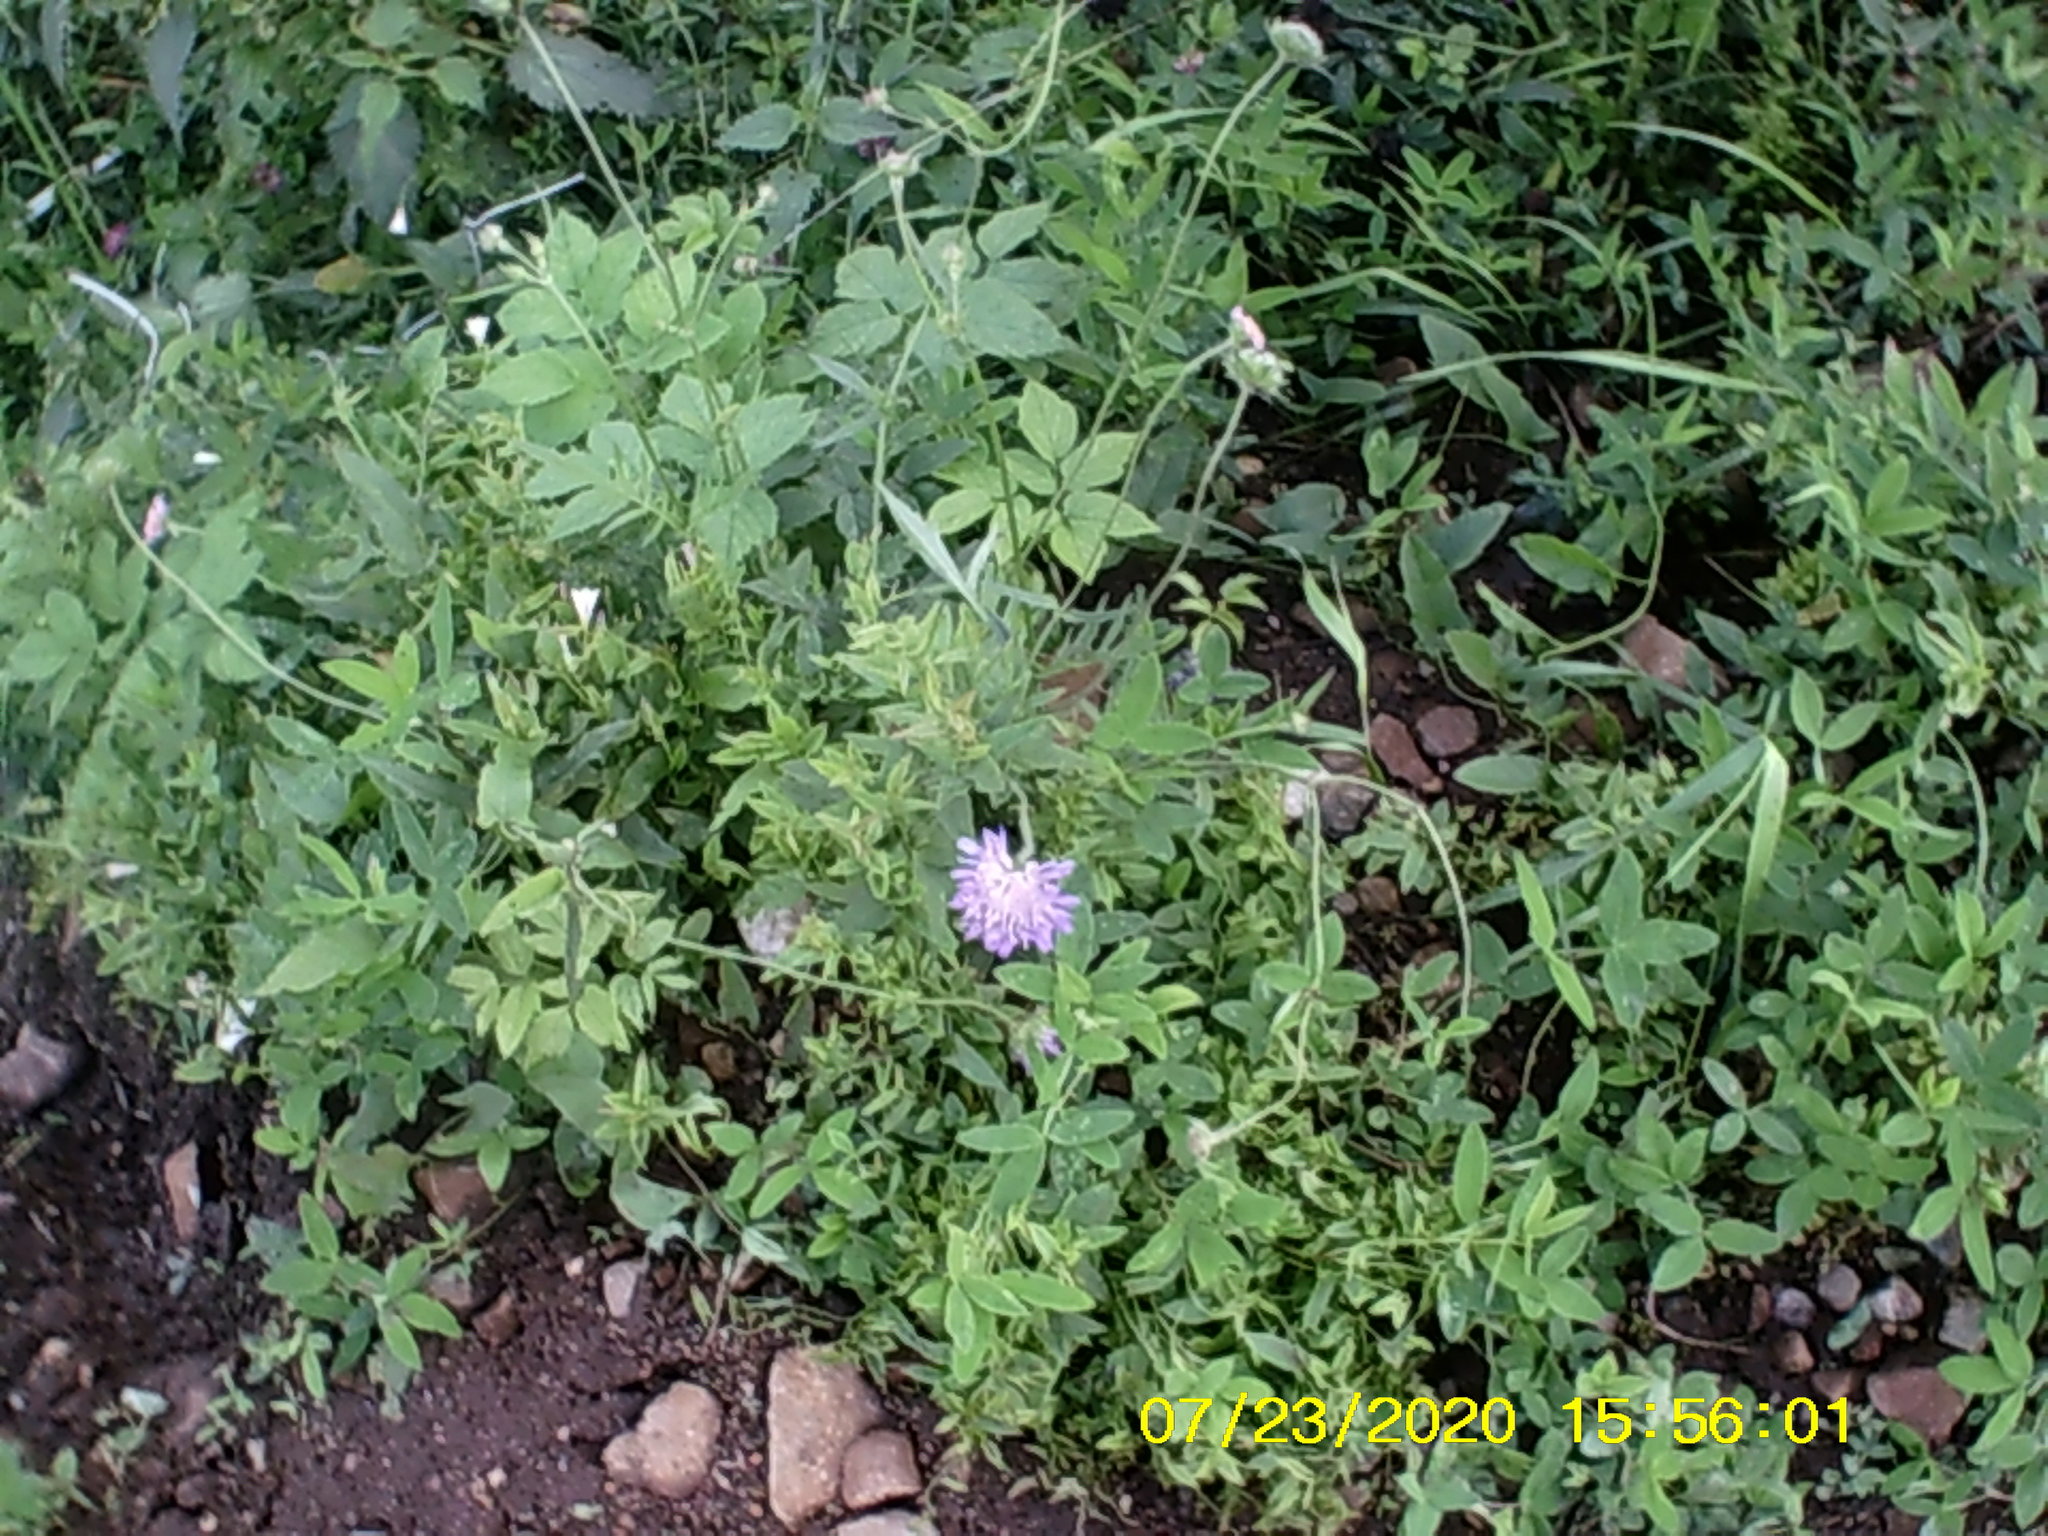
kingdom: Plantae
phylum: Tracheophyta
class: Magnoliopsida
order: Dipsacales
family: Caprifoliaceae
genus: Knautia
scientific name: Knautia arvensis
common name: Field scabiosa
